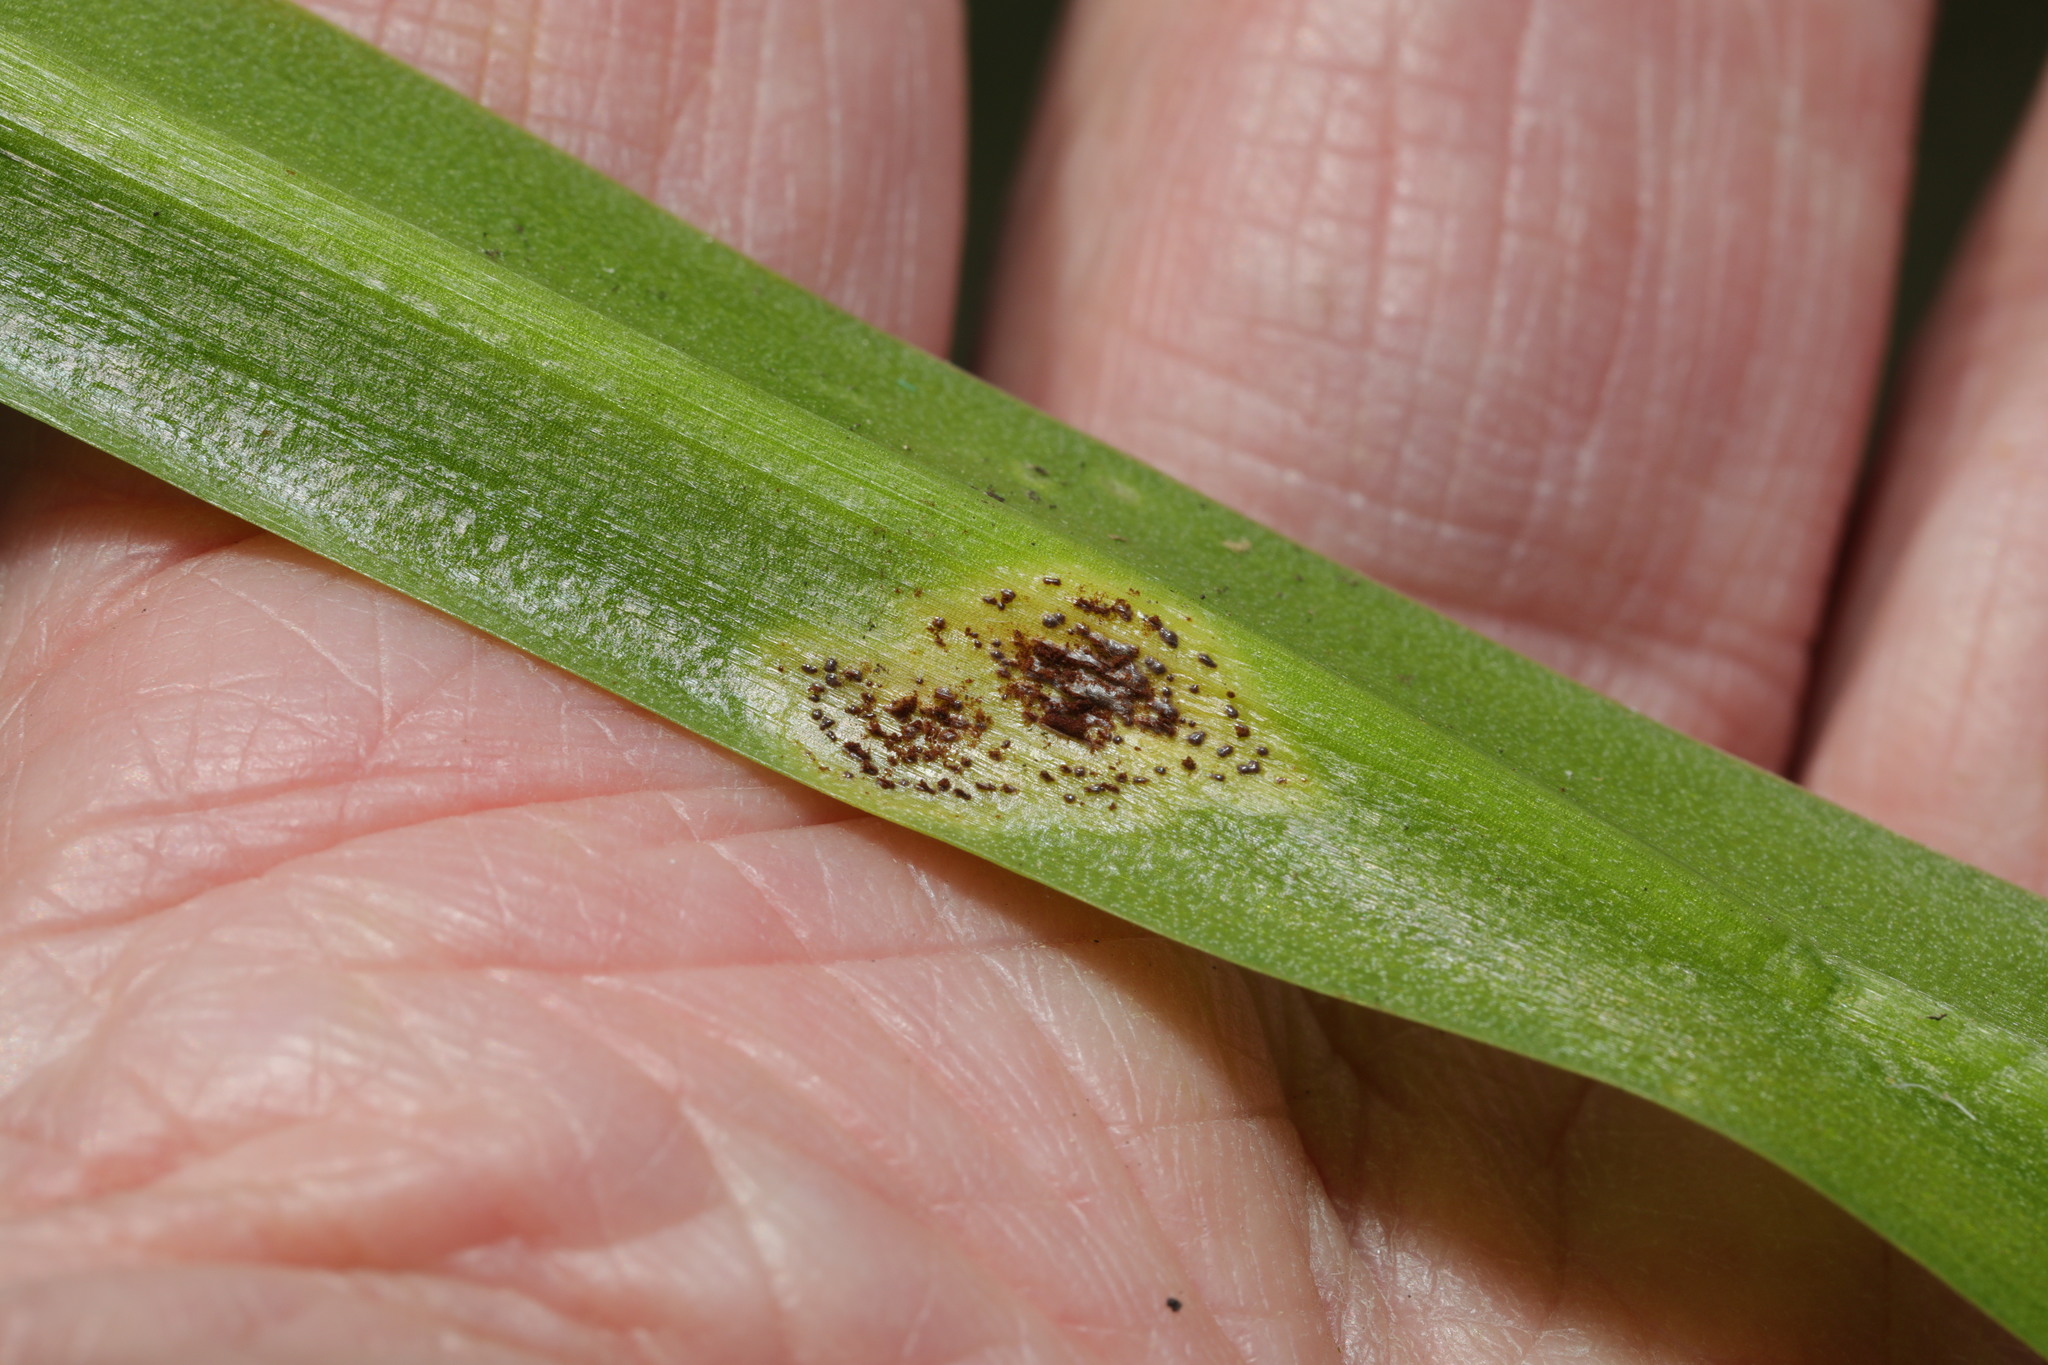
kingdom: Fungi
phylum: Basidiomycota
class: Pucciniomycetes
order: Pucciniales
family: Pucciniaceae
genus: Uromyces
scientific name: Uromyces hyacinthi
